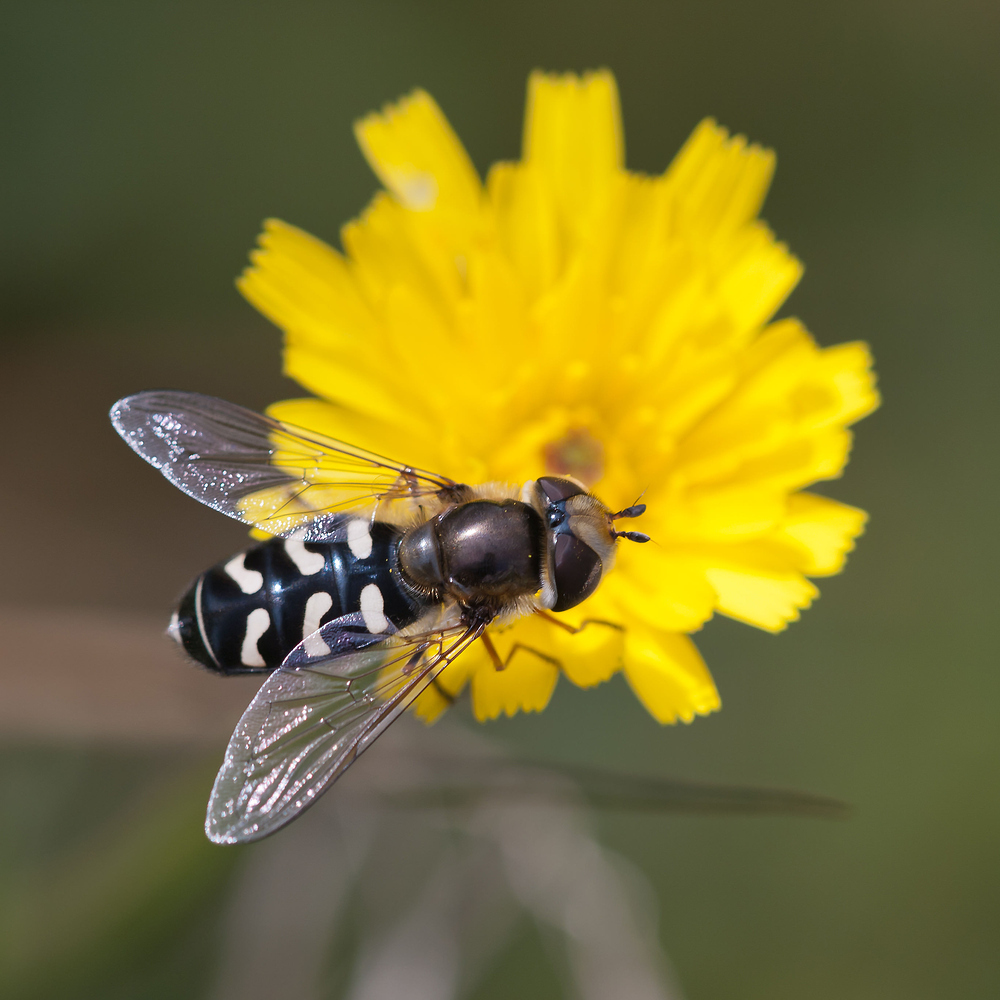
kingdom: Animalia
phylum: Arthropoda
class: Insecta
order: Diptera
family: Syrphidae
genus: Scaeva
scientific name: Scaeva pyrastri
